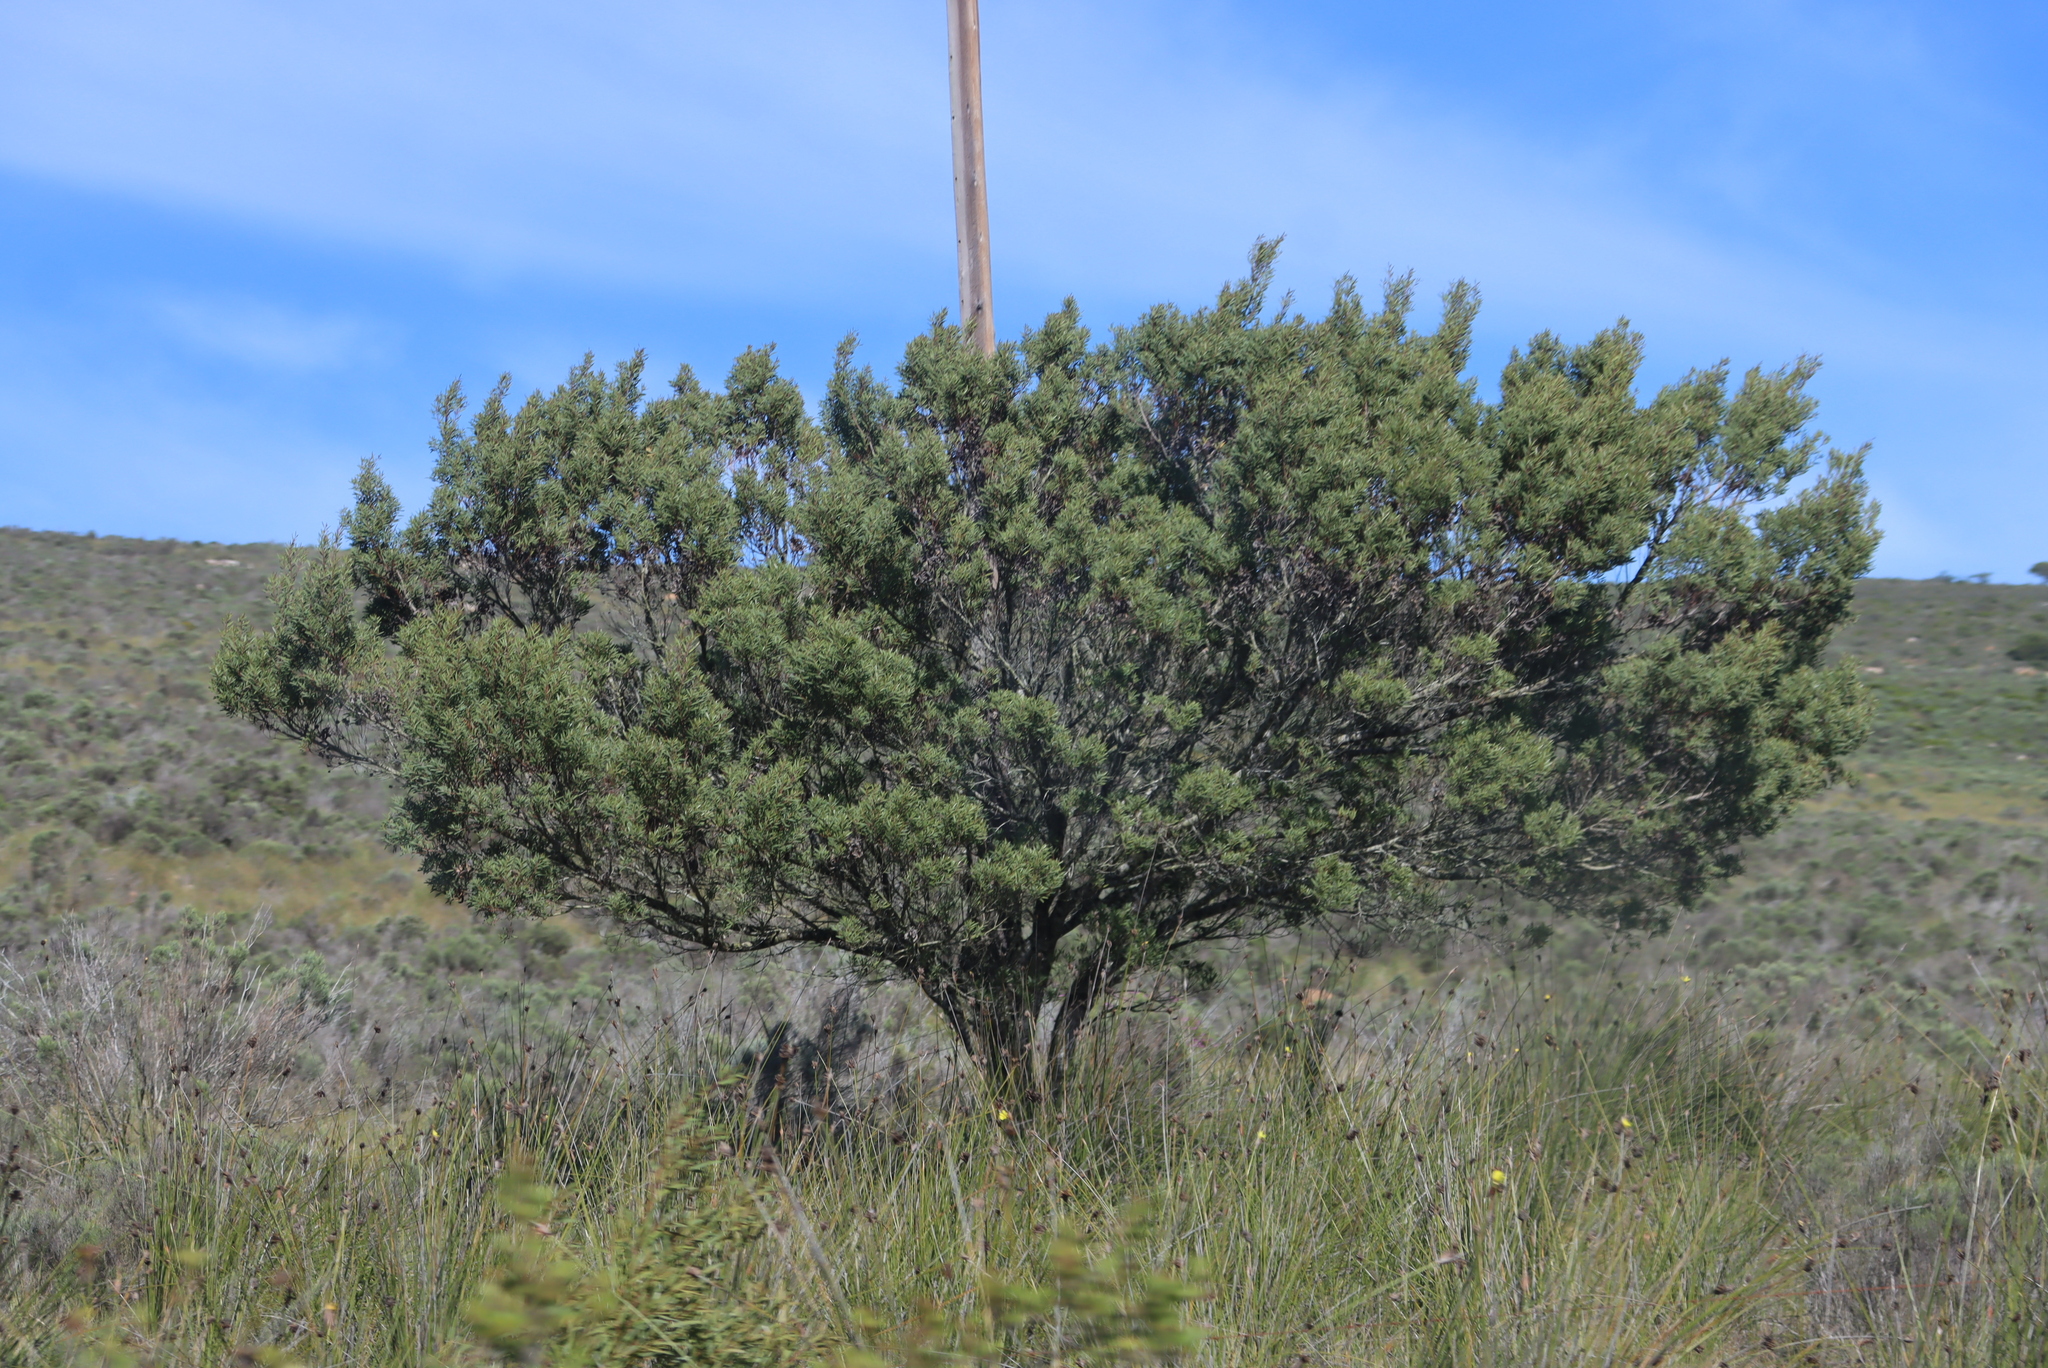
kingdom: Animalia
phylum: Arthropoda
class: Insecta
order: Diptera
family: Cecidomyiidae
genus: Dasineura
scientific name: Dasineura dielsi
